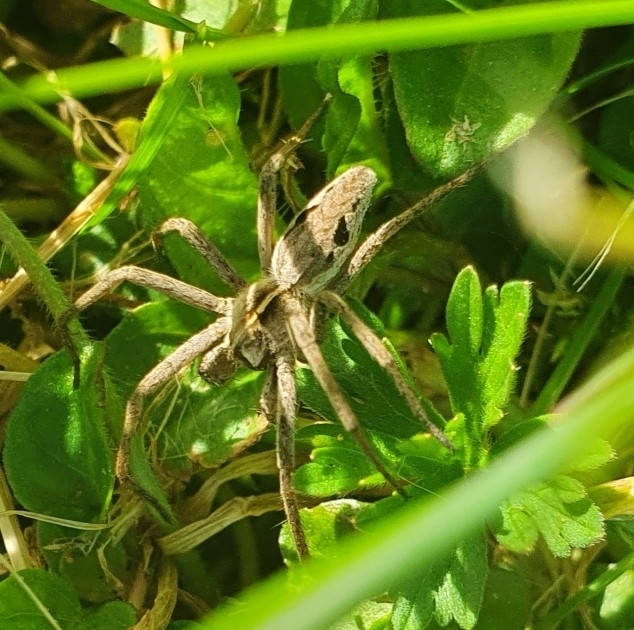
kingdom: Animalia
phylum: Arthropoda
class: Arachnida
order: Araneae
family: Pisauridae
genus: Pisaura
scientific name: Pisaura mirabilis
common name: Tent spider
